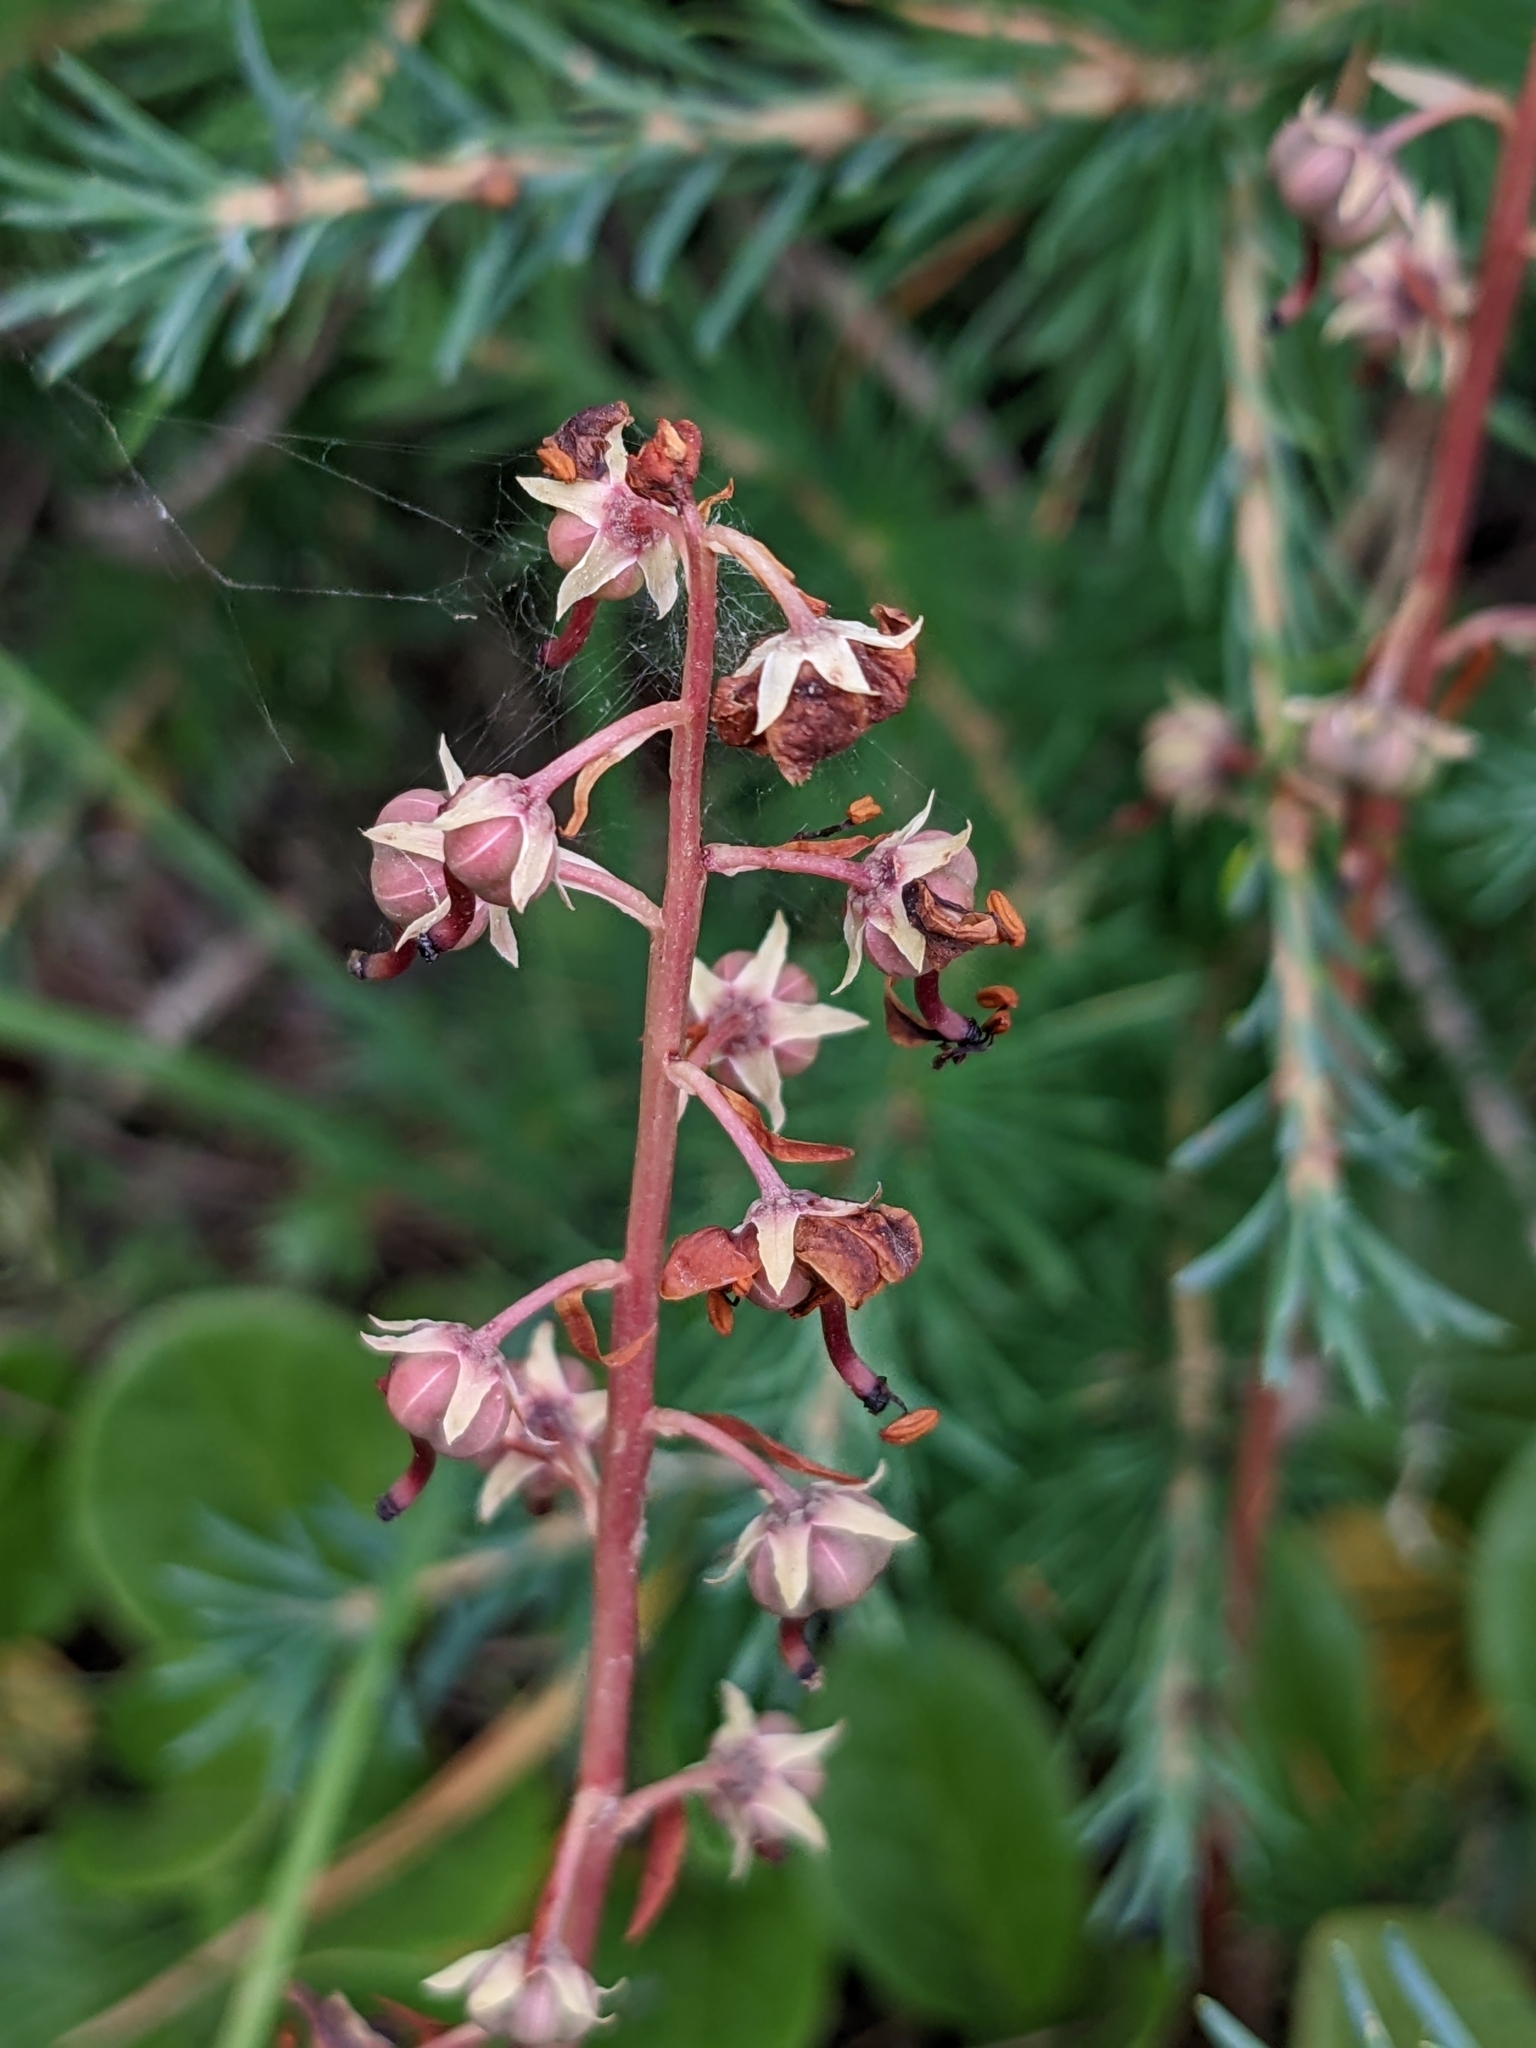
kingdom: Plantae
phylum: Tracheophyta
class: Magnoliopsida
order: Ericales
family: Ericaceae
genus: Pyrola
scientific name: Pyrola rotundifolia
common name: Round-leaved wintergreen
